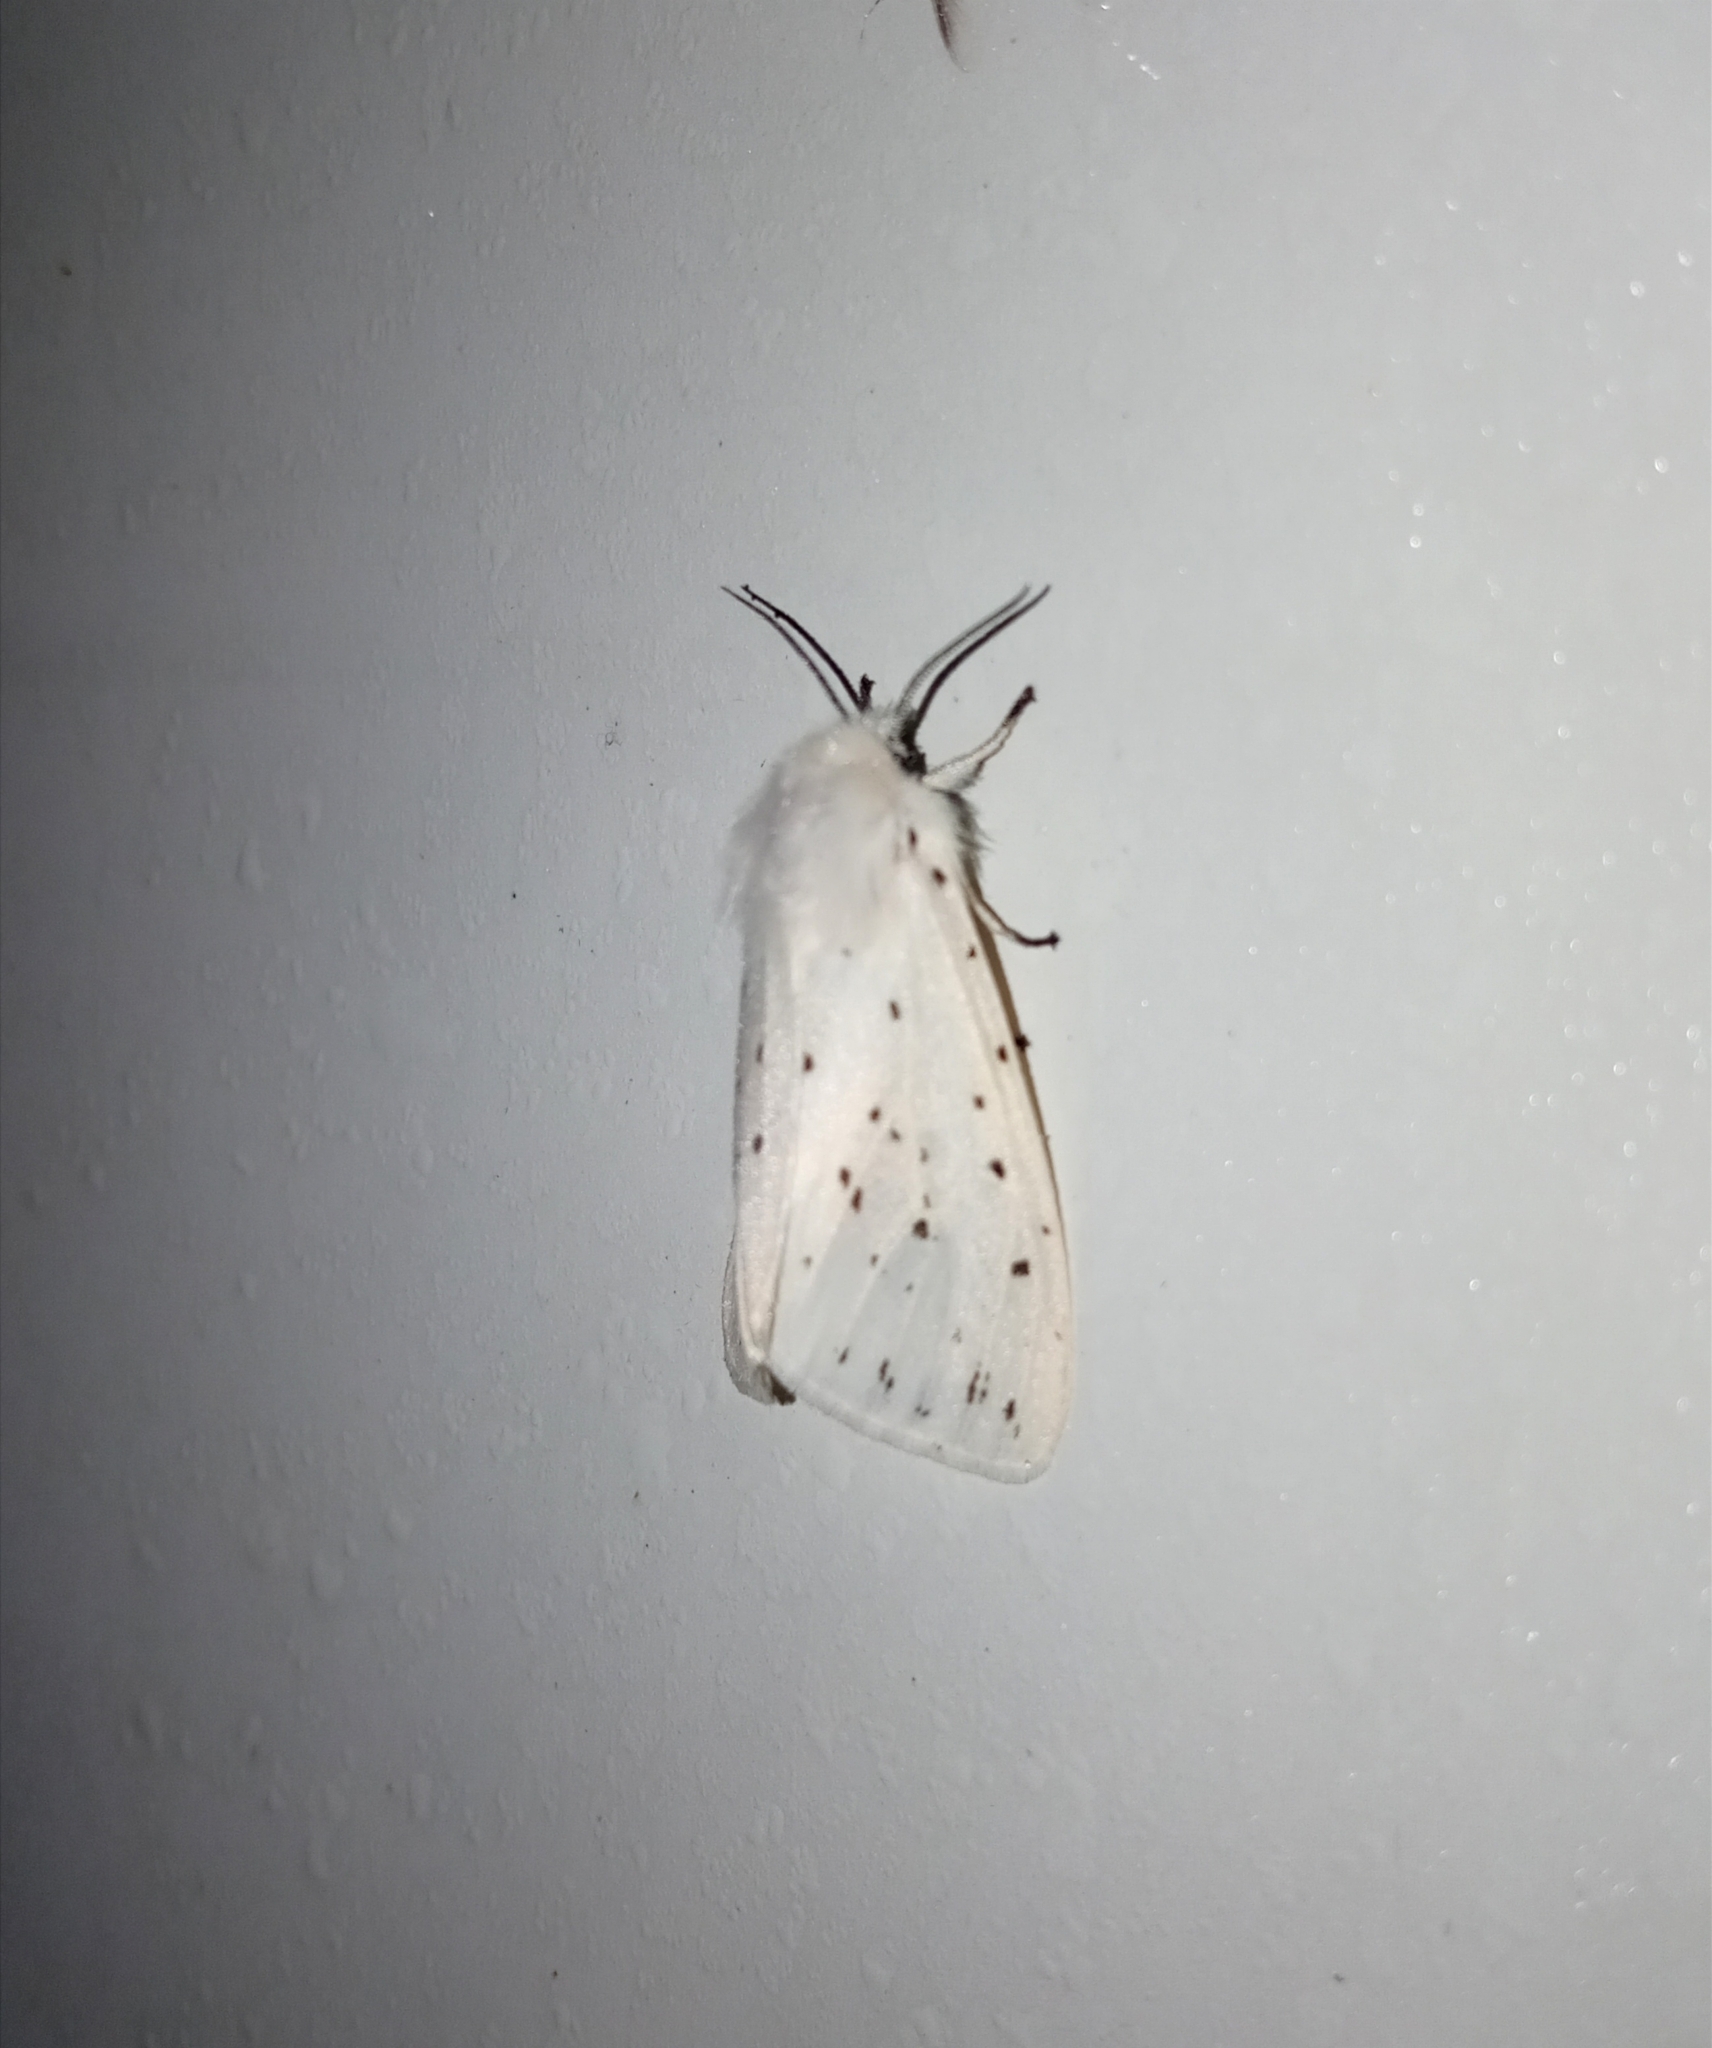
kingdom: Animalia
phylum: Arthropoda
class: Insecta
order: Lepidoptera
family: Erebidae
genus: Spilosoma
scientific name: Spilosoma lubricipeda
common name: White ermine
